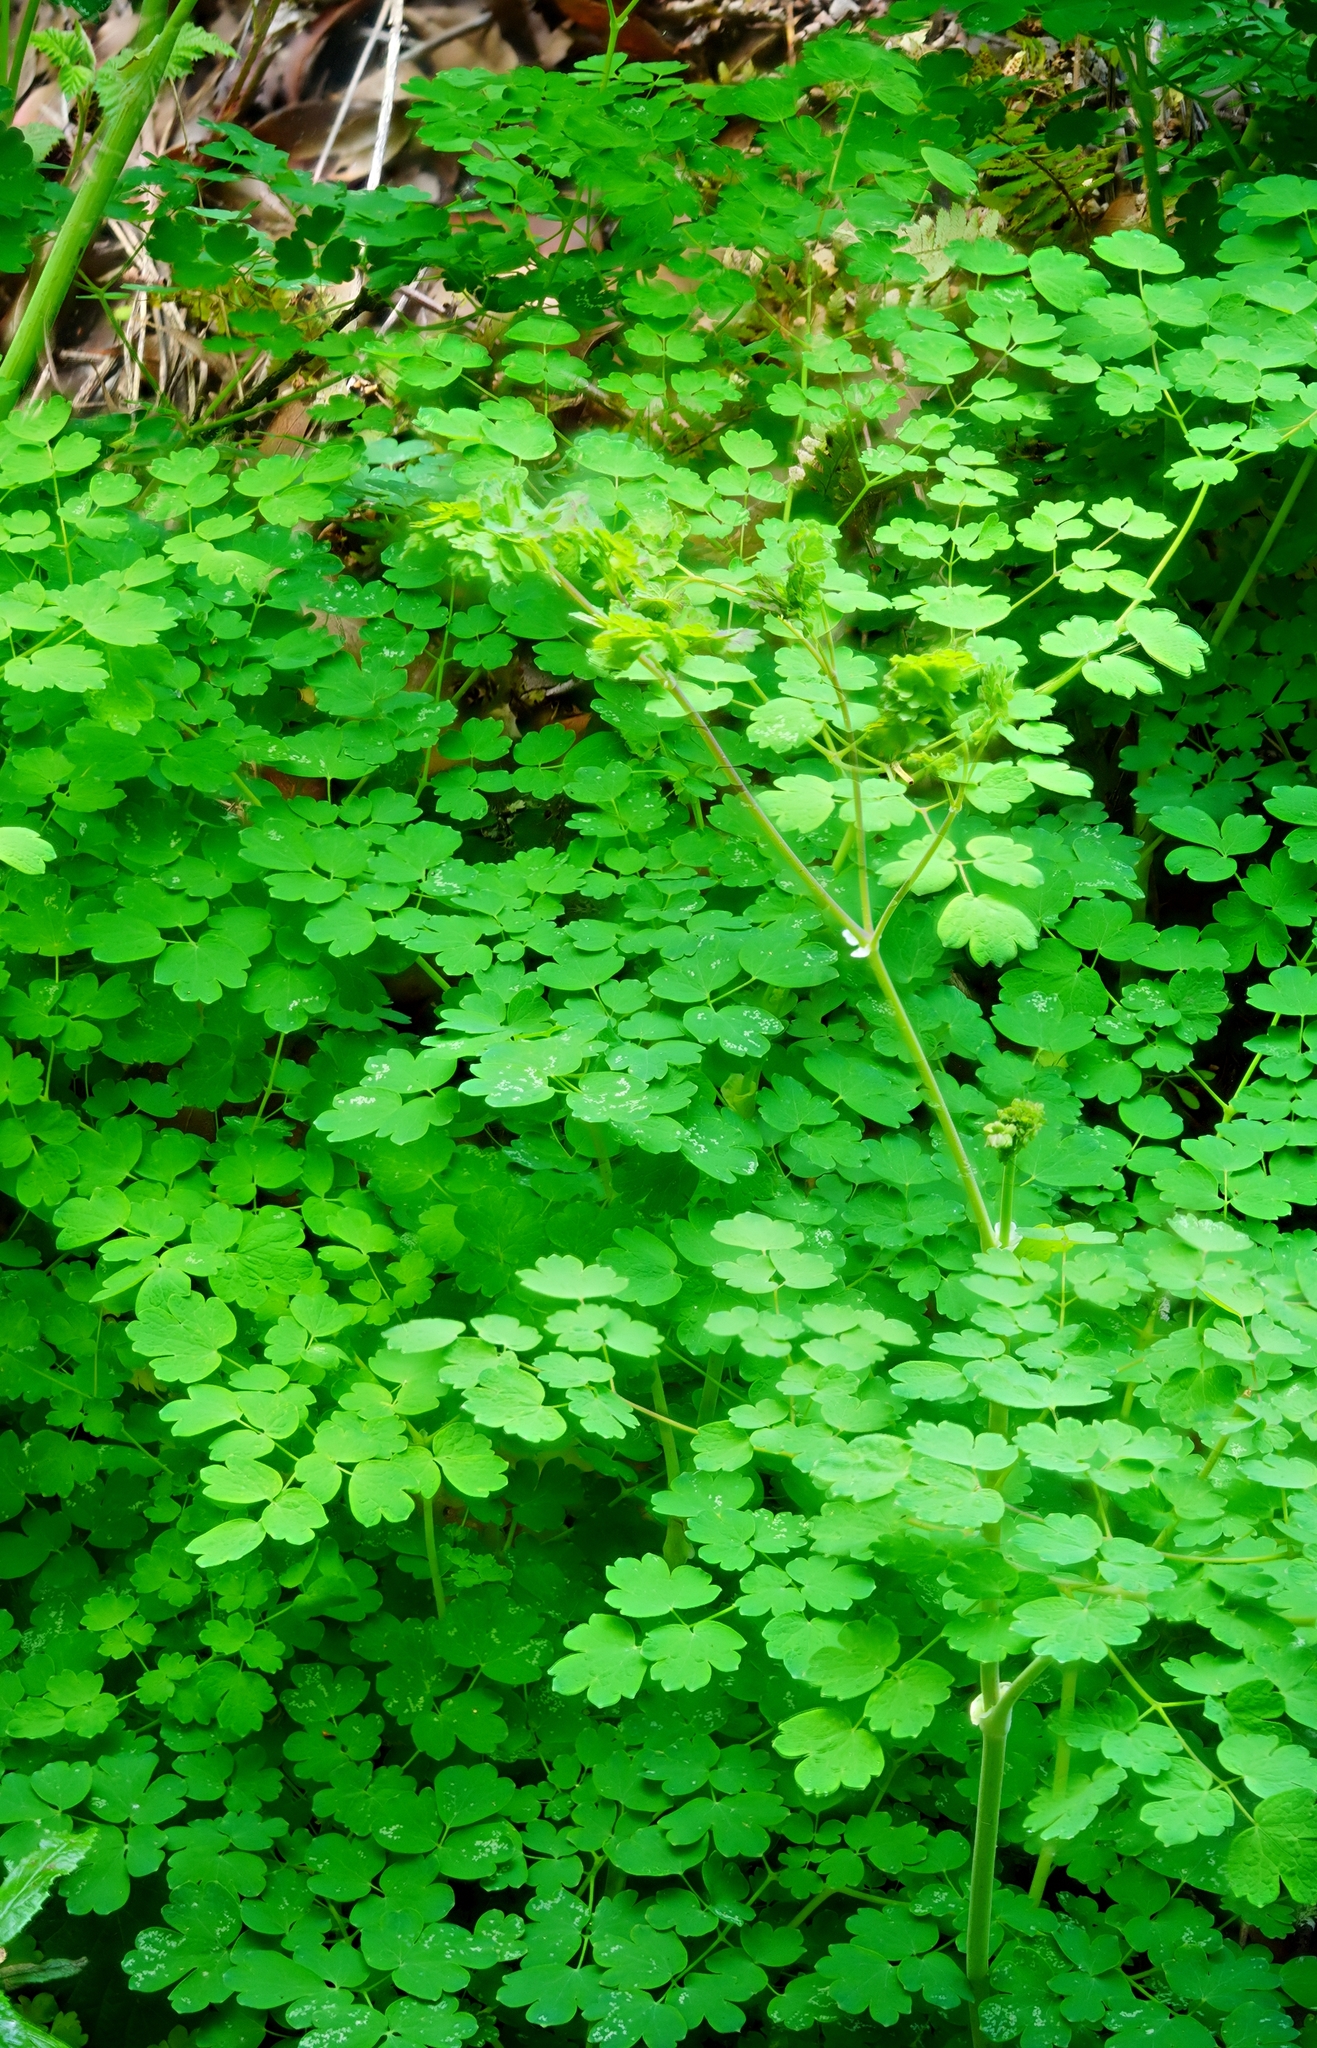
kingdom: Plantae
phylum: Tracheophyta
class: Magnoliopsida
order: Ranunculales
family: Ranunculaceae
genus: Thalictrum
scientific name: Thalictrum fendleri
